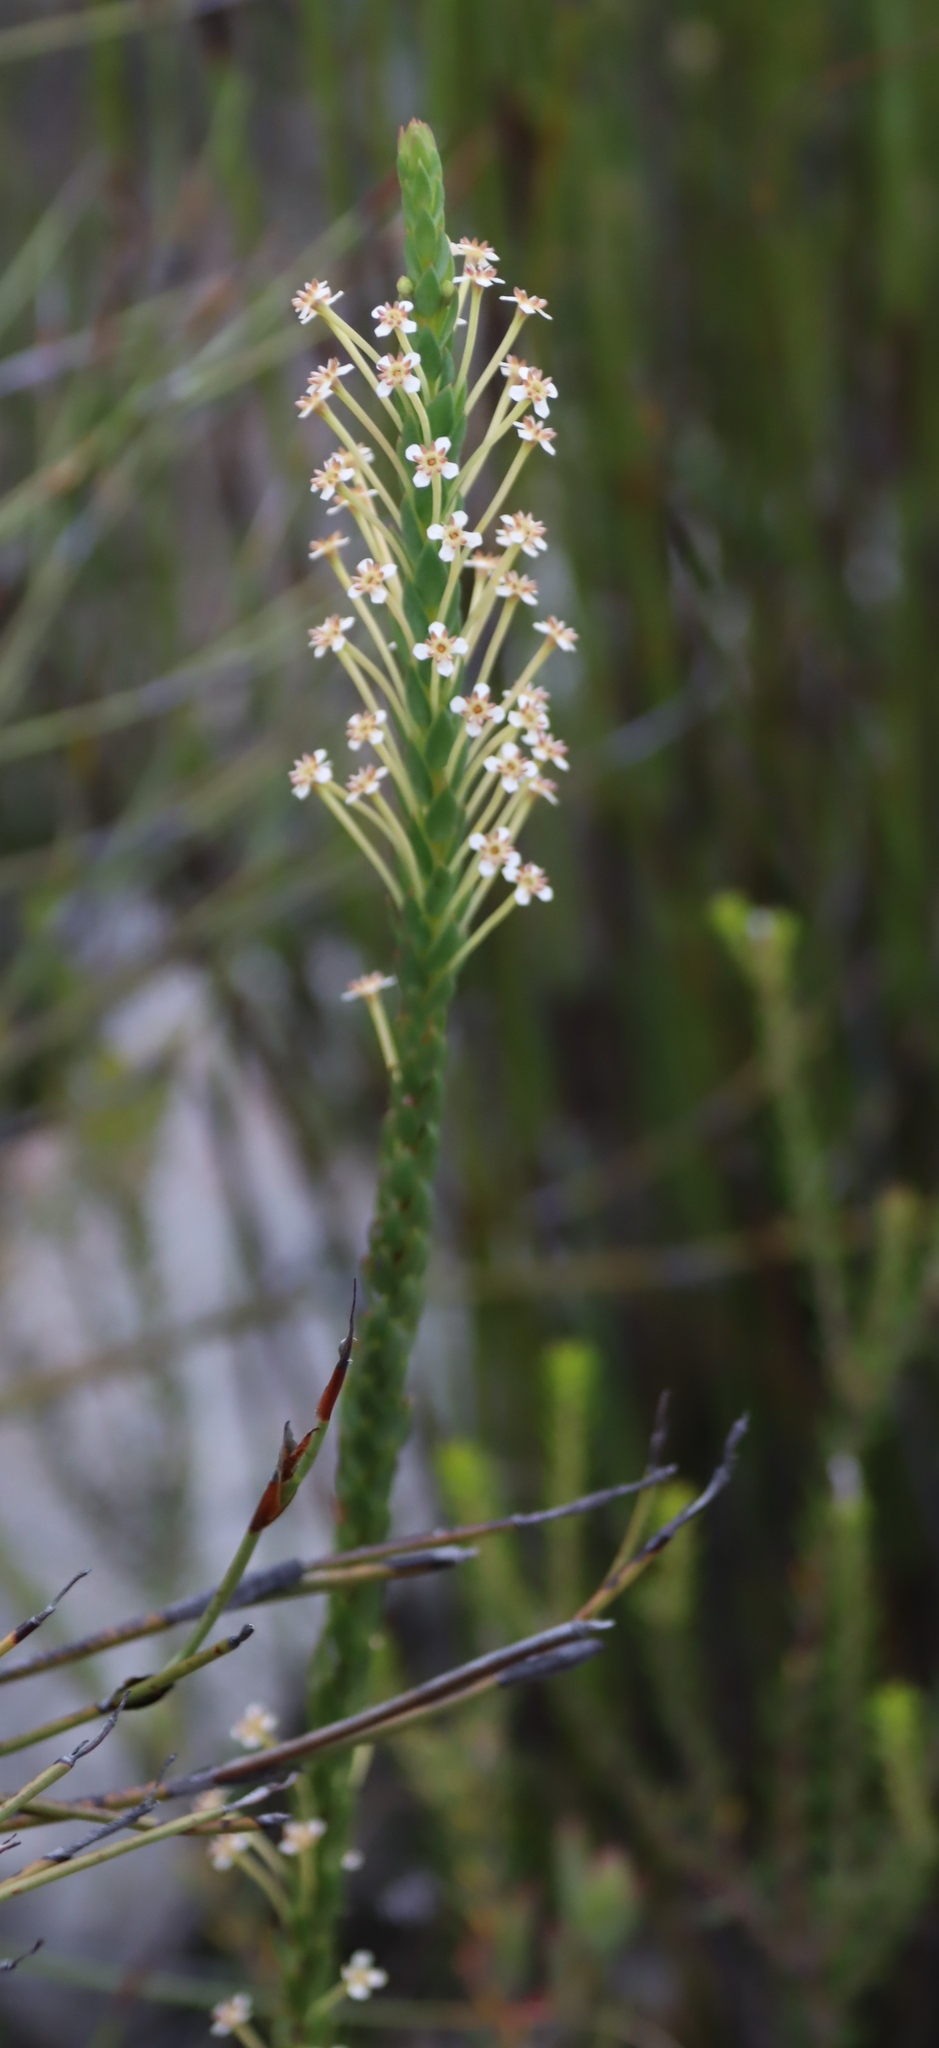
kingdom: Plantae
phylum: Tracheophyta
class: Magnoliopsida
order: Malvales
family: Thymelaeaceae
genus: Struthiola
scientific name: Struthiola eckloniana
